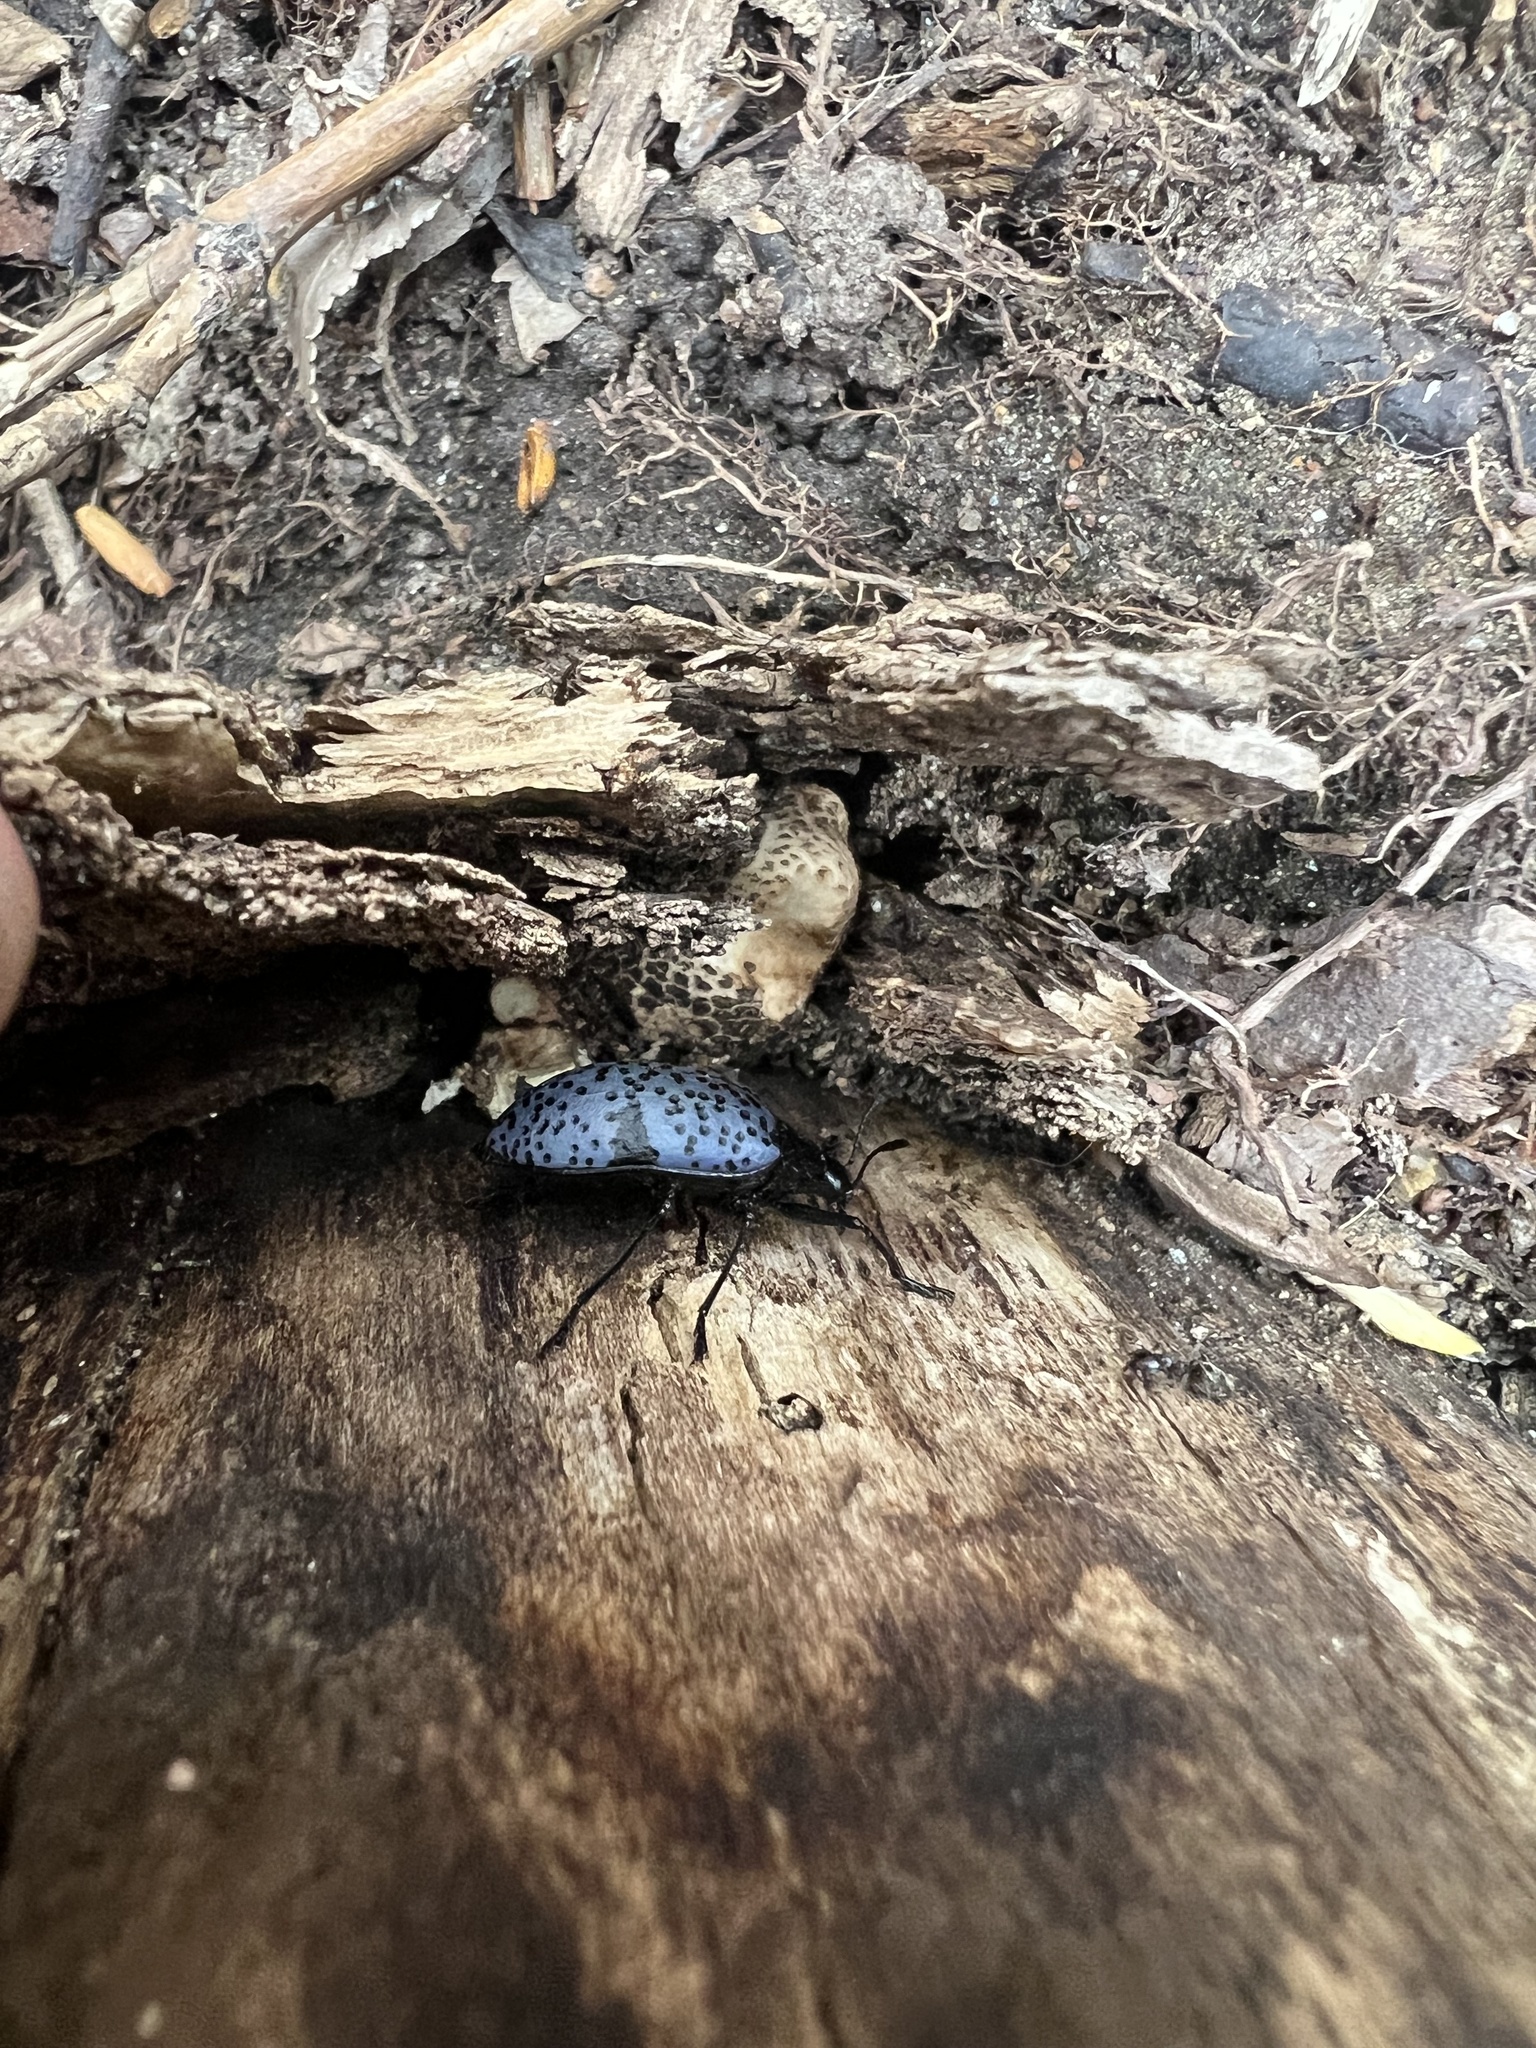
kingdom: Animalia
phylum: Arthropoda
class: Insecta
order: Coleoptera
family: Erotylidae
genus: Gibbifer
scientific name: Gibbifer californicus
